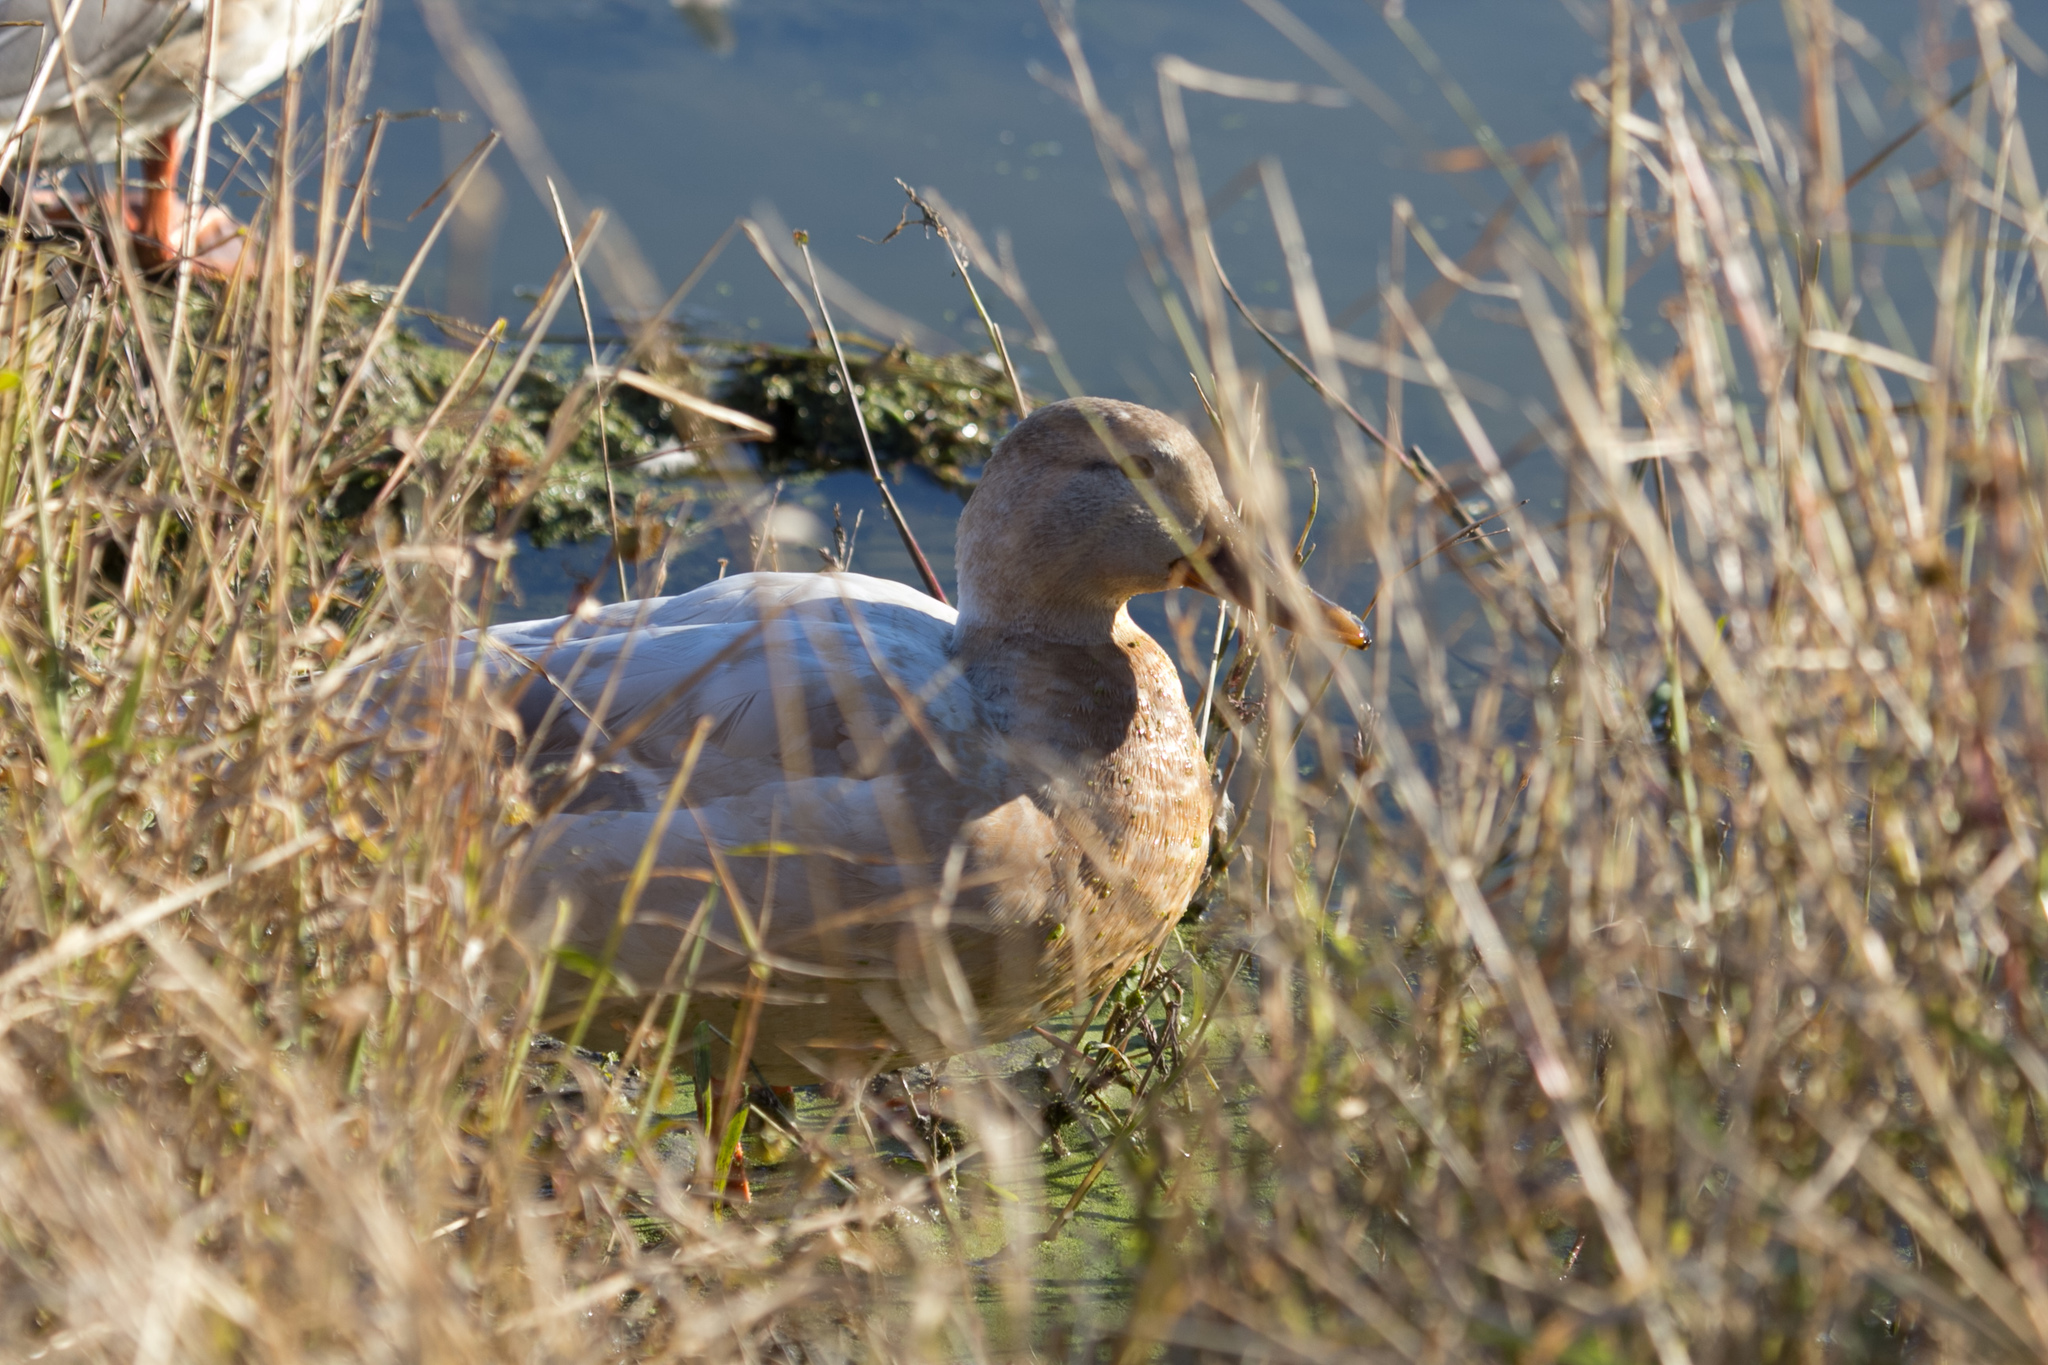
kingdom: Animalia
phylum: Chordata
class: Aves
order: Anseriformes
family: Anatidae
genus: Anas
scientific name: Anas platyrhynchos
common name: Mallard
